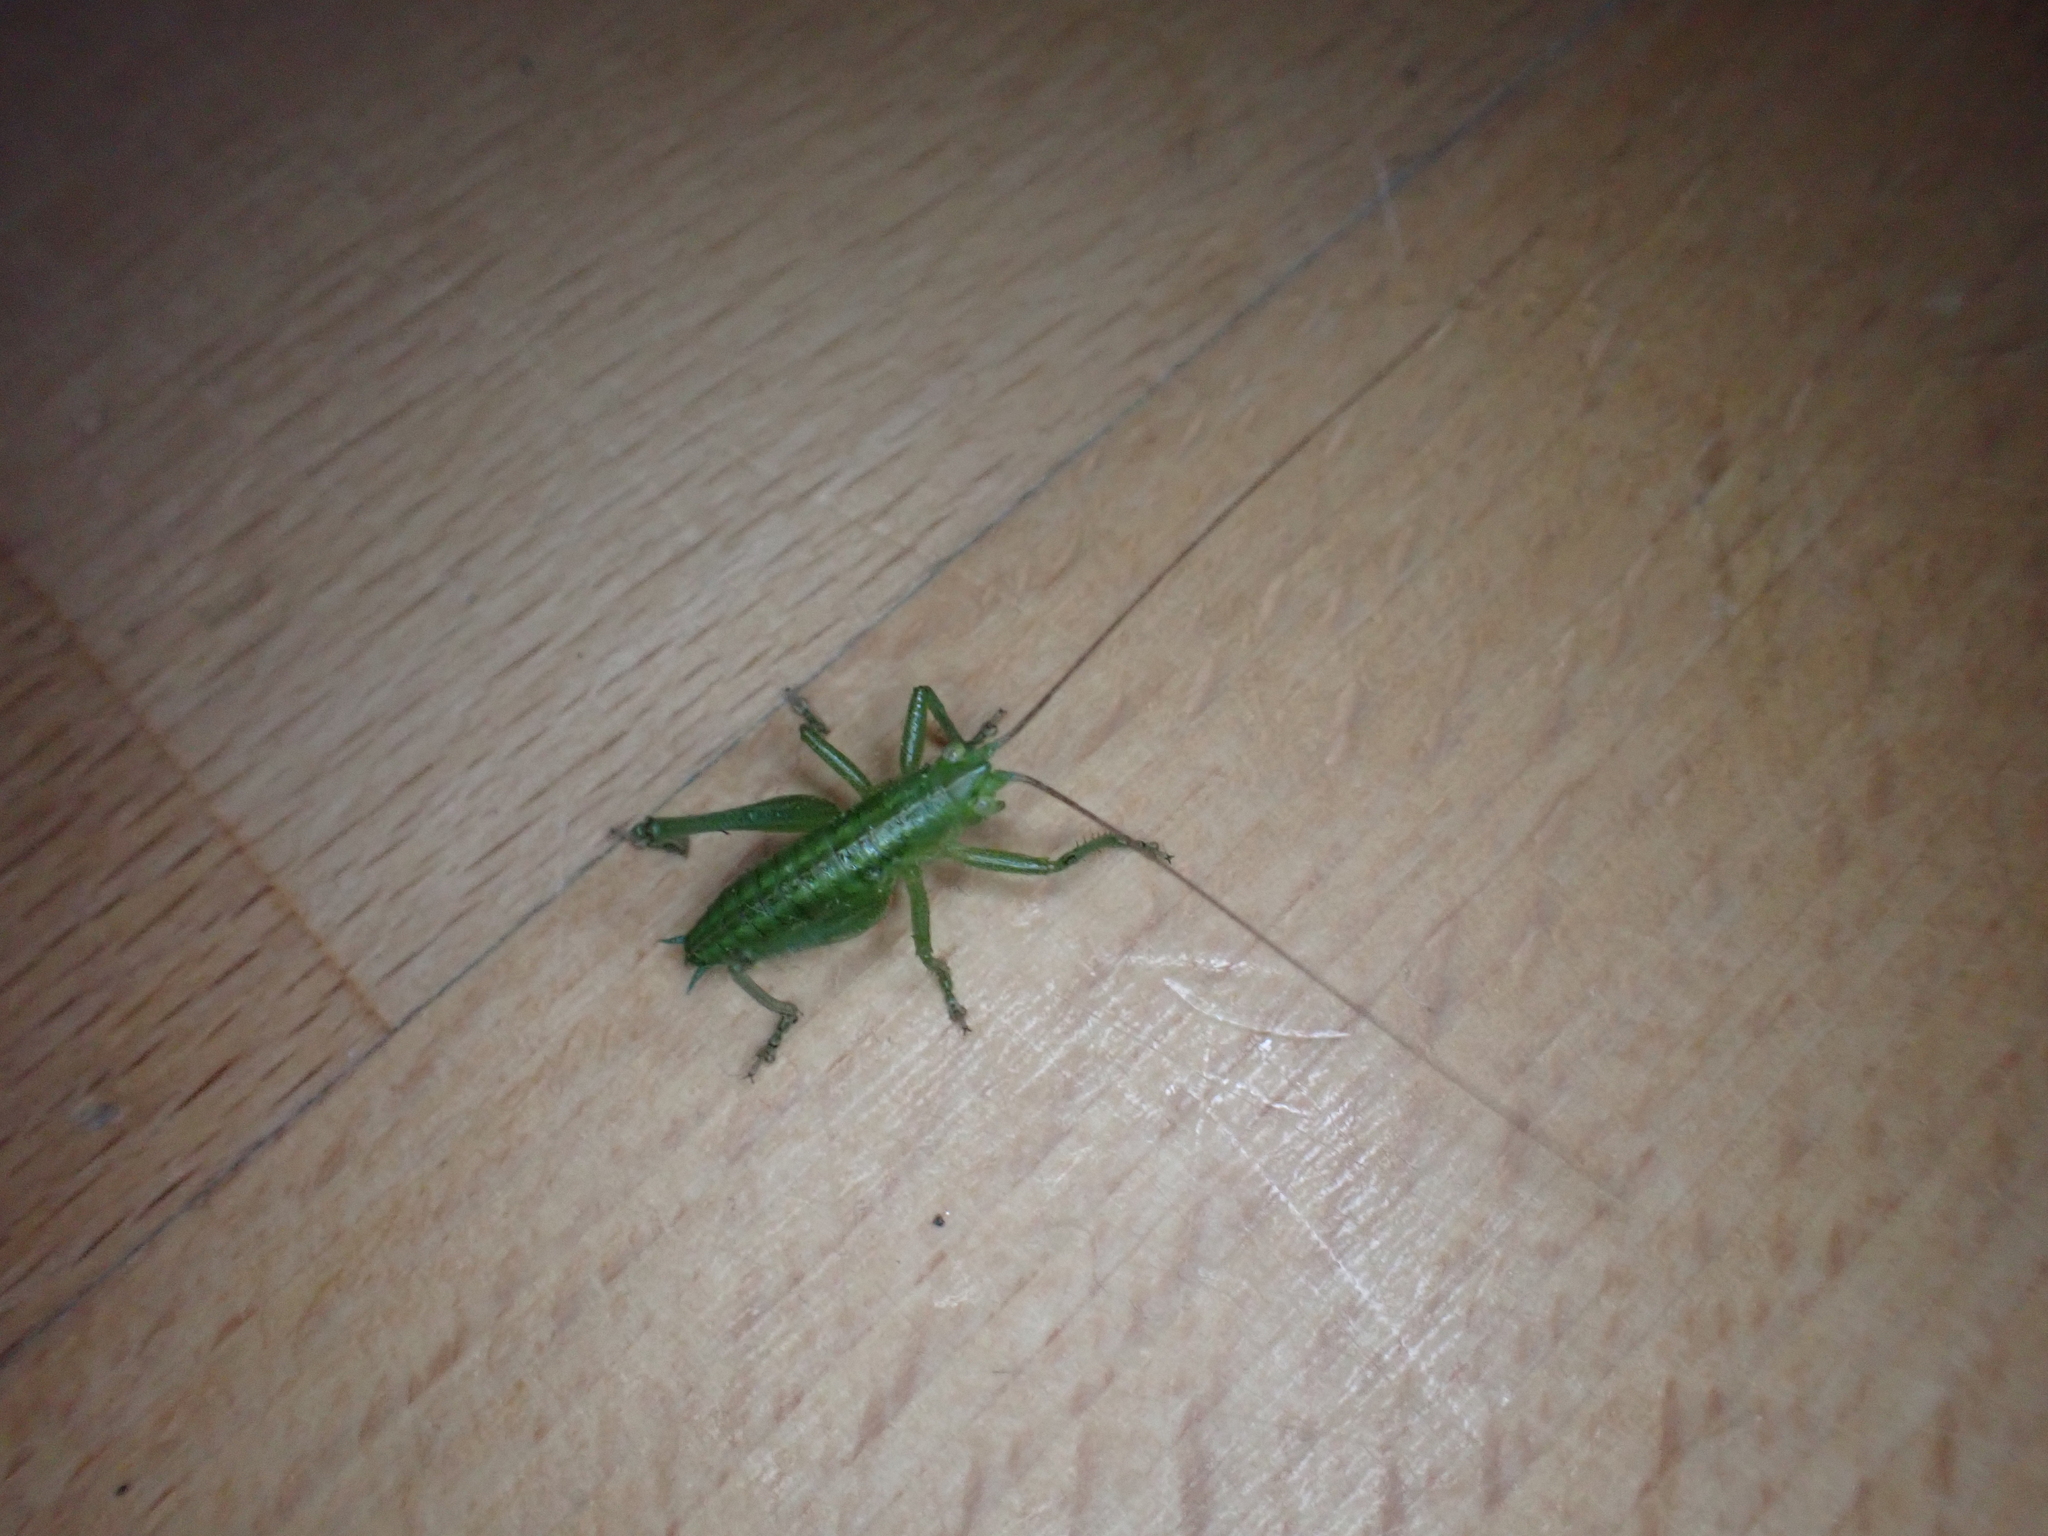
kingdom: Animalia
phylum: Arthropoda
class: Insecta
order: Orthoptera
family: Tettigoniidae
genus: Tettigonia
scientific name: Tettigonia viridissima
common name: Great green bush-cricket
